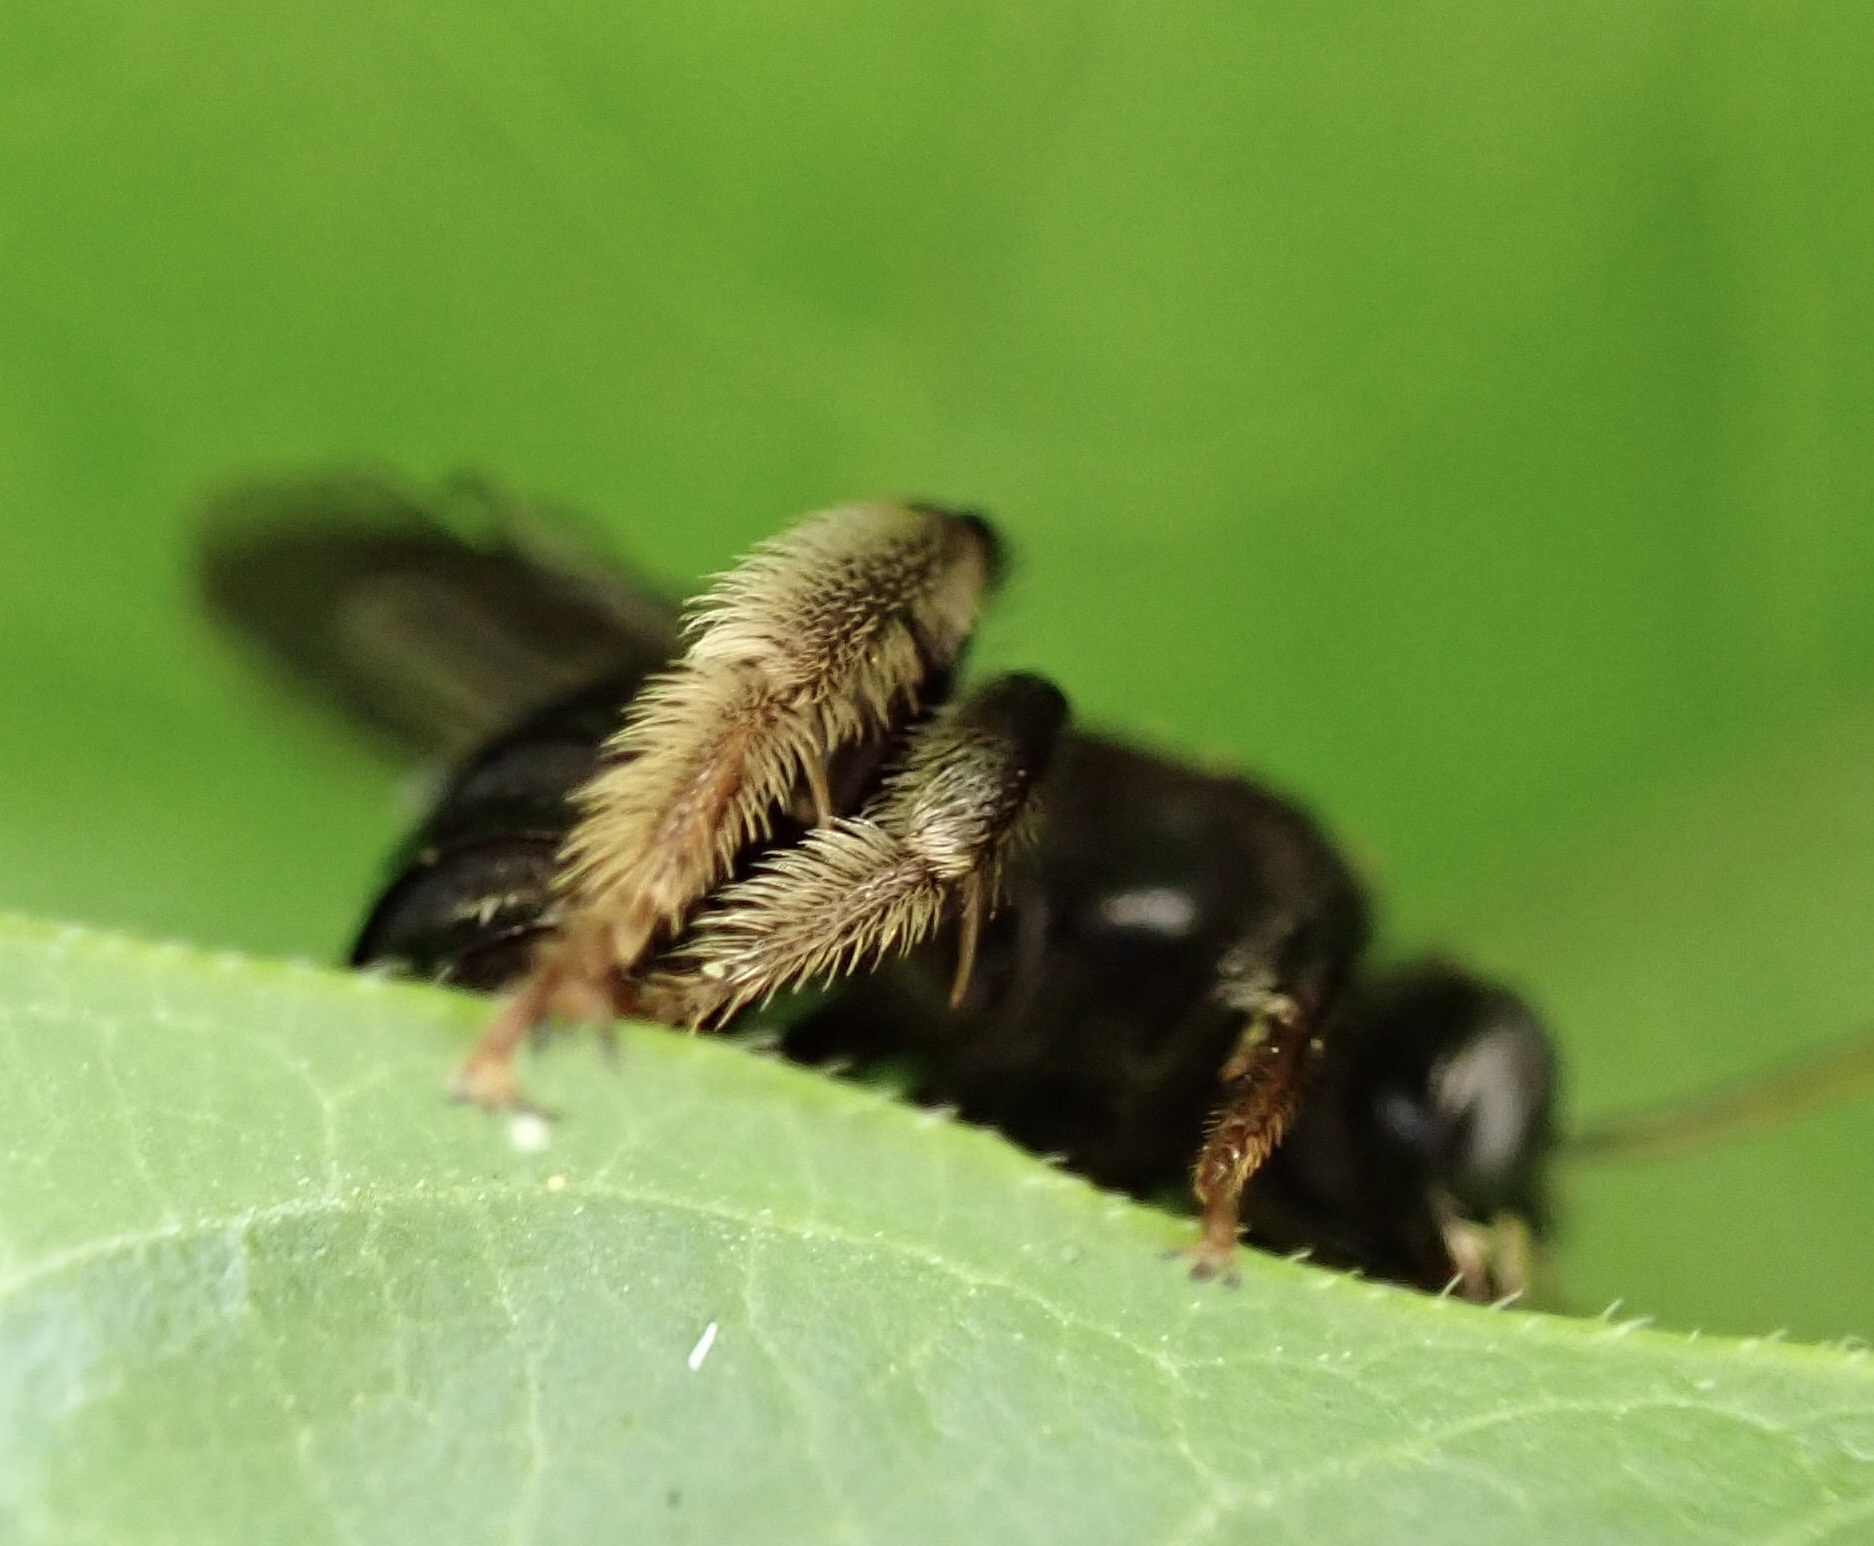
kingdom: Animalia
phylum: Arthropoda
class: Insecta
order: Hymenoptera
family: Apidae
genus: Melissodes
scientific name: Melissodes bimaculatus
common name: Two-spotted long-horned bee
